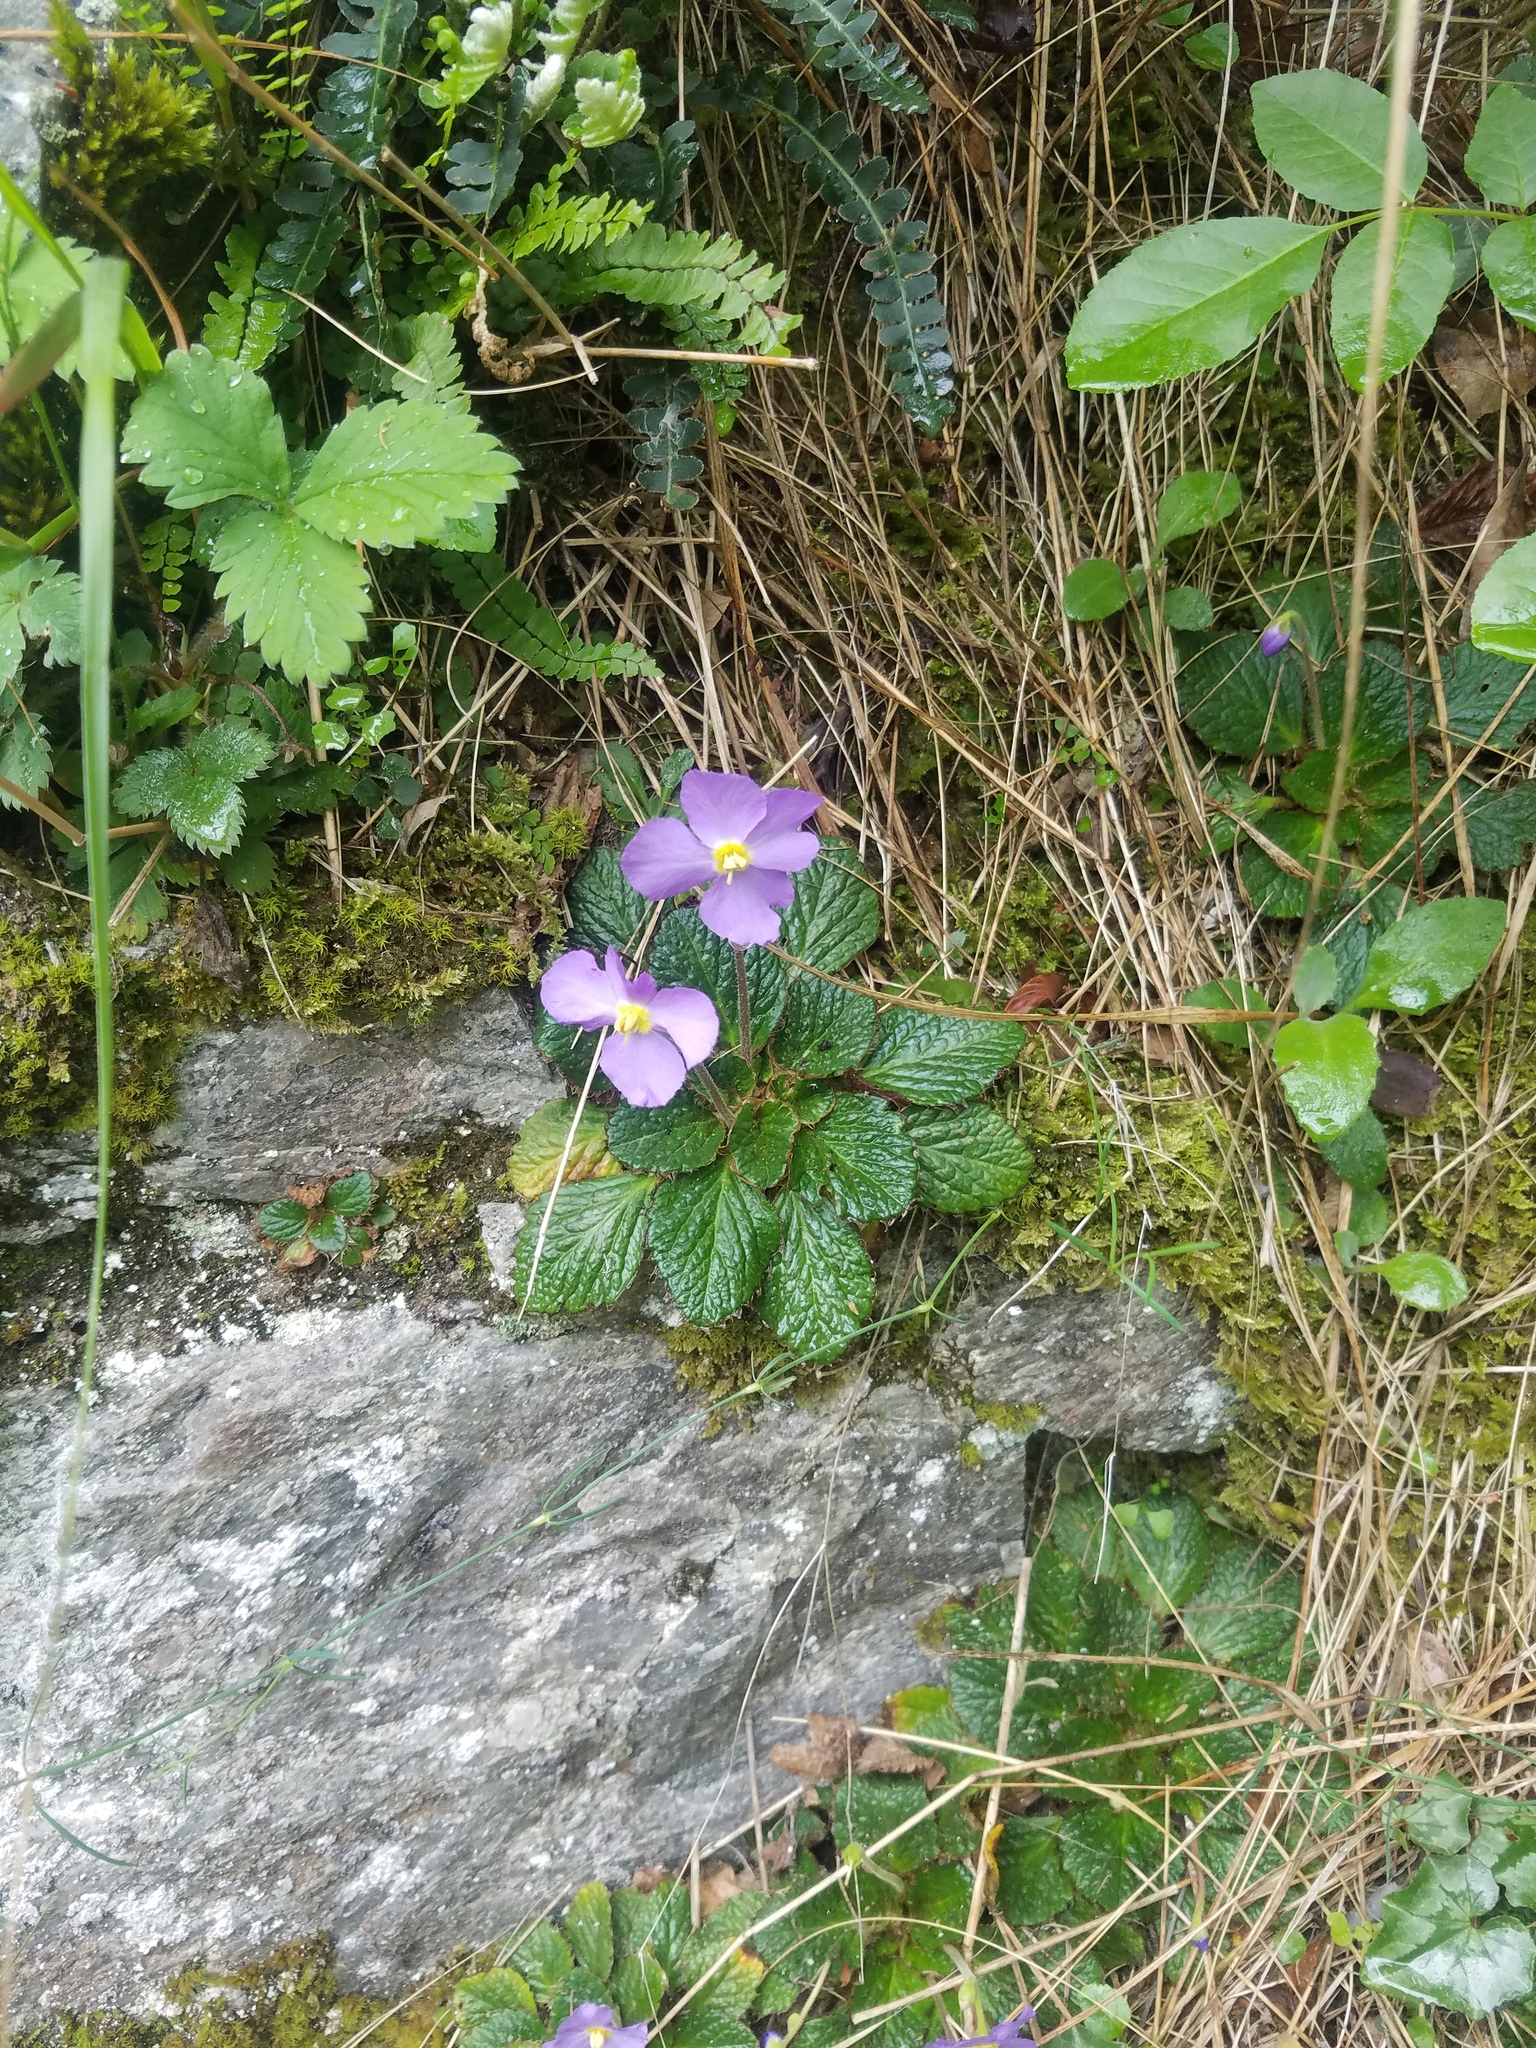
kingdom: Plantae
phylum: Tracheophyta
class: Magnoliopsida
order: Lamiales
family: Gesneriaceae
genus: Ramonda
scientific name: Ramonda nathaliae
